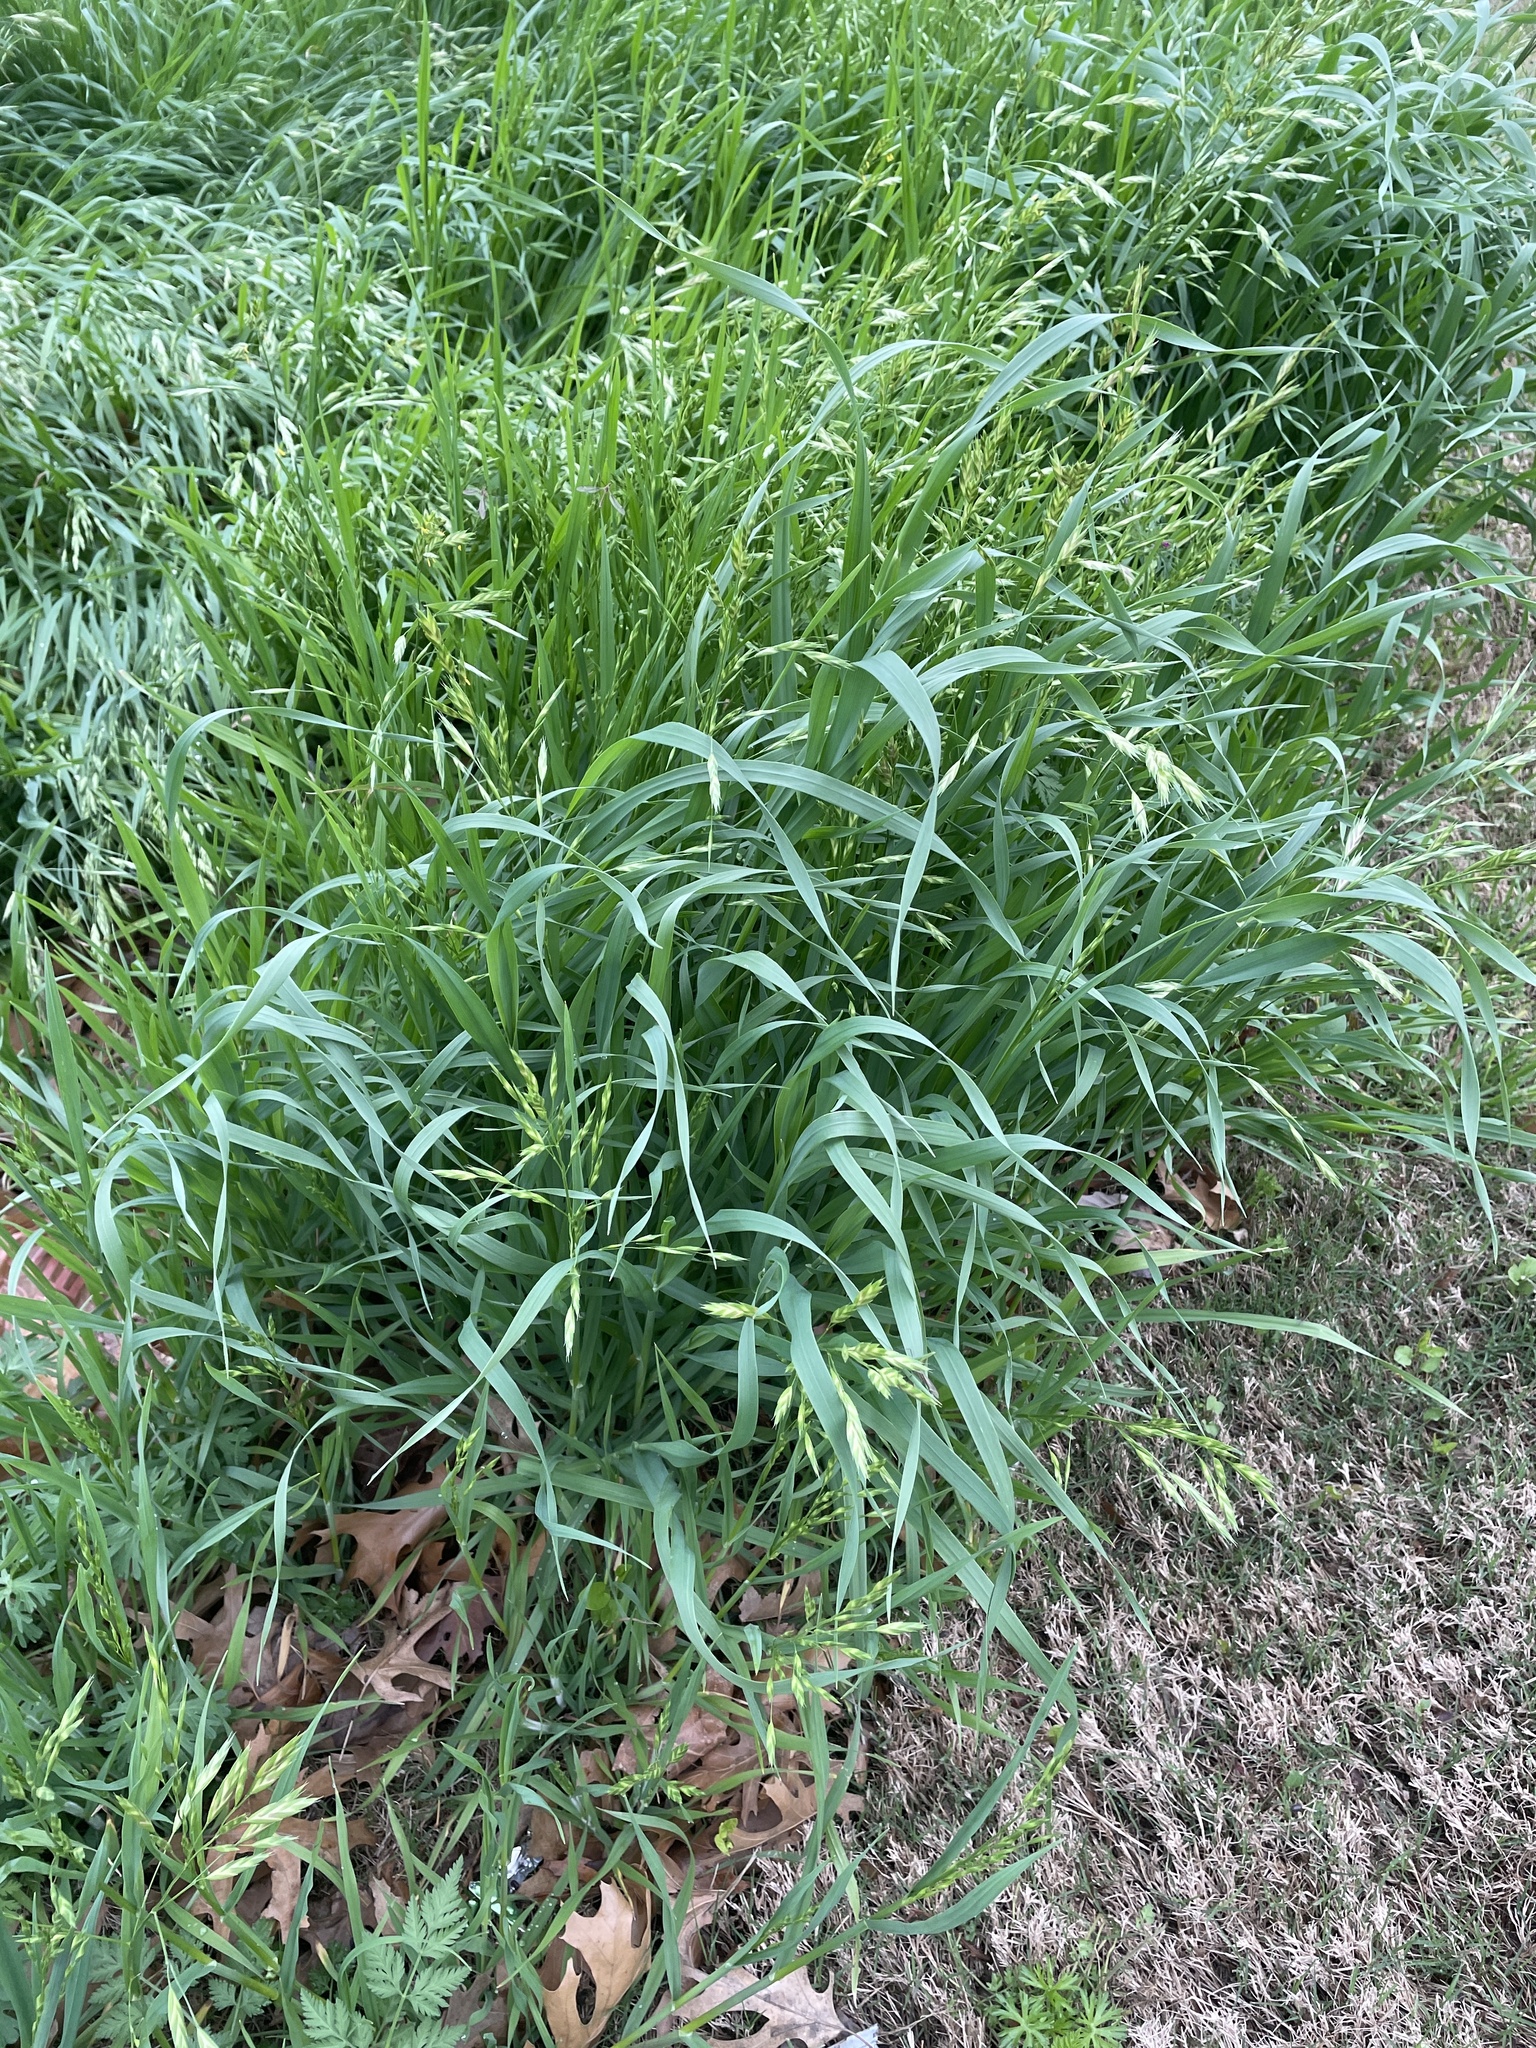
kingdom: Plantae
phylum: Tracheophyta
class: Liliopsida
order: Poales
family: Poaceae
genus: Bromus
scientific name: Bromus catharticus
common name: Rescuegrass
